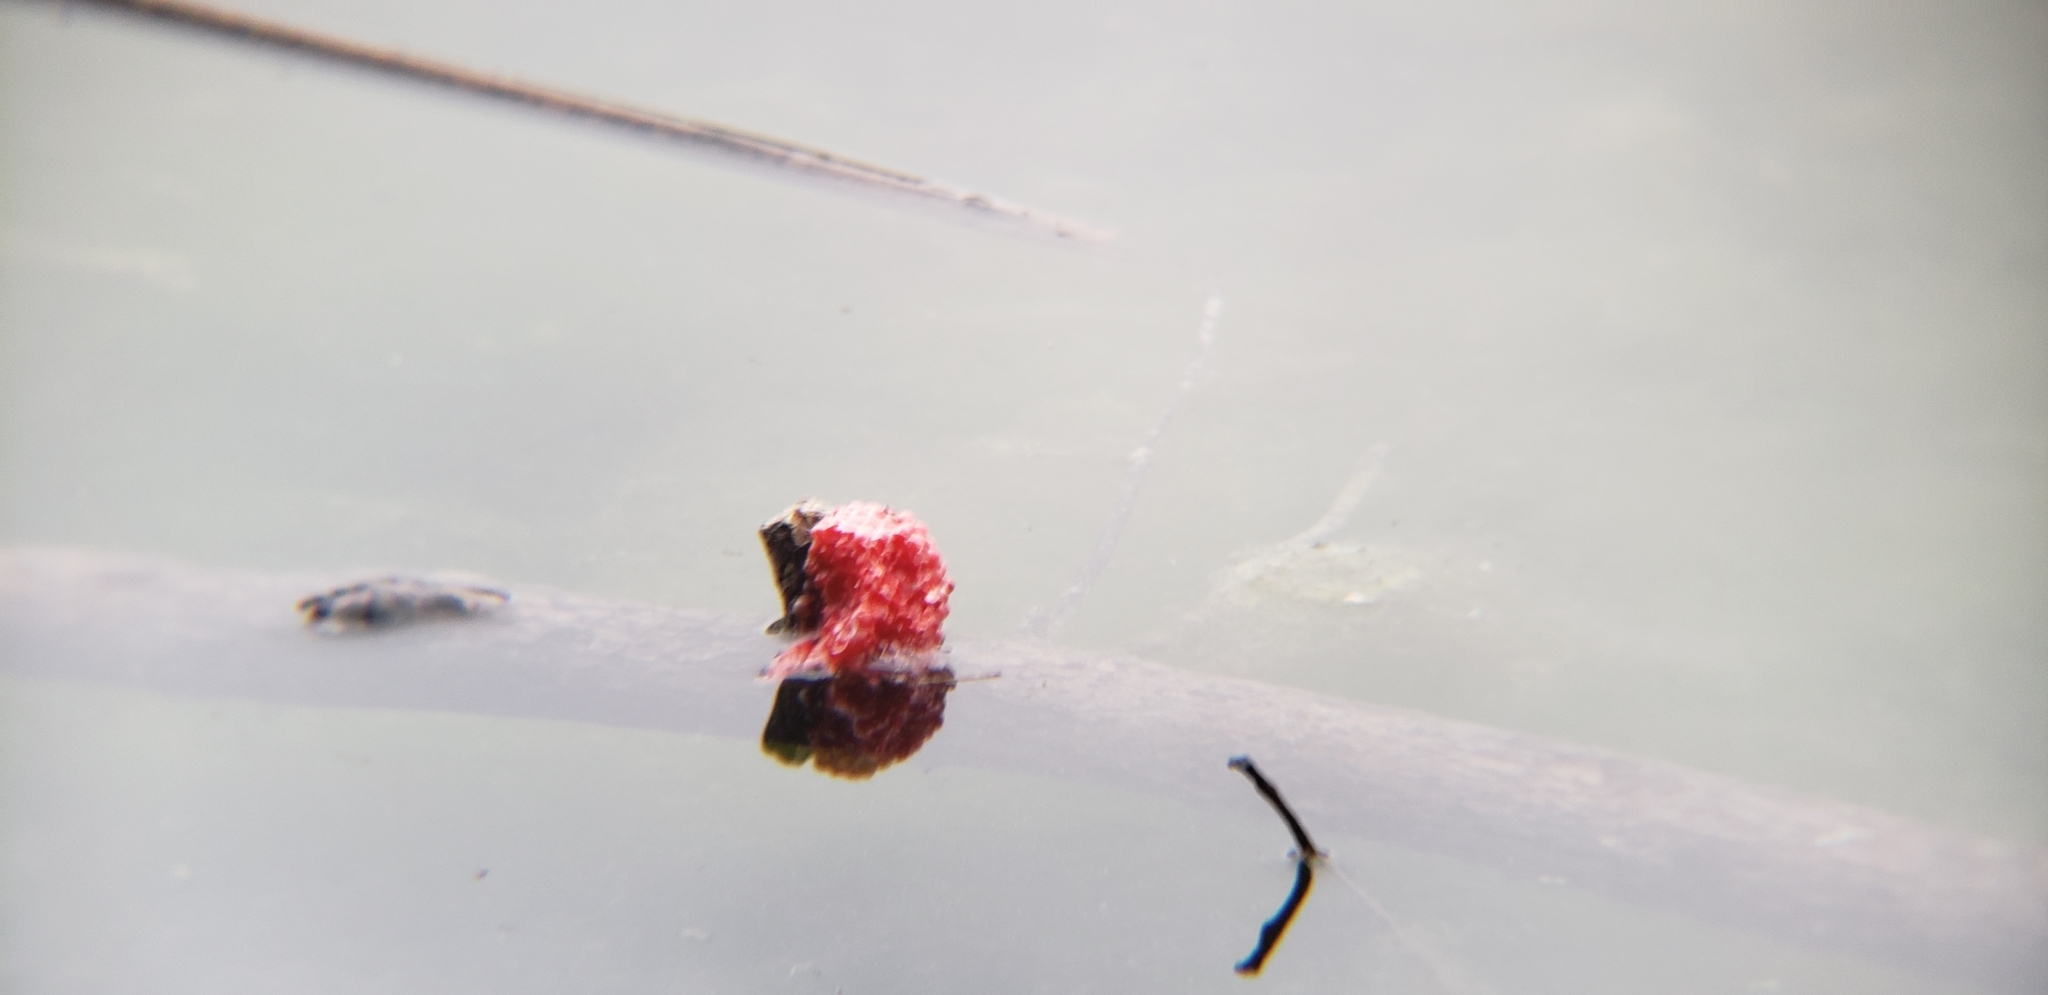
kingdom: Animalia
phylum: Mollusca
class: Gastropoda
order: Architaenioglossa
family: Ampullariidae
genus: Pomacea
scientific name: Pomacea canaliculata
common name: Channeled applesnail
